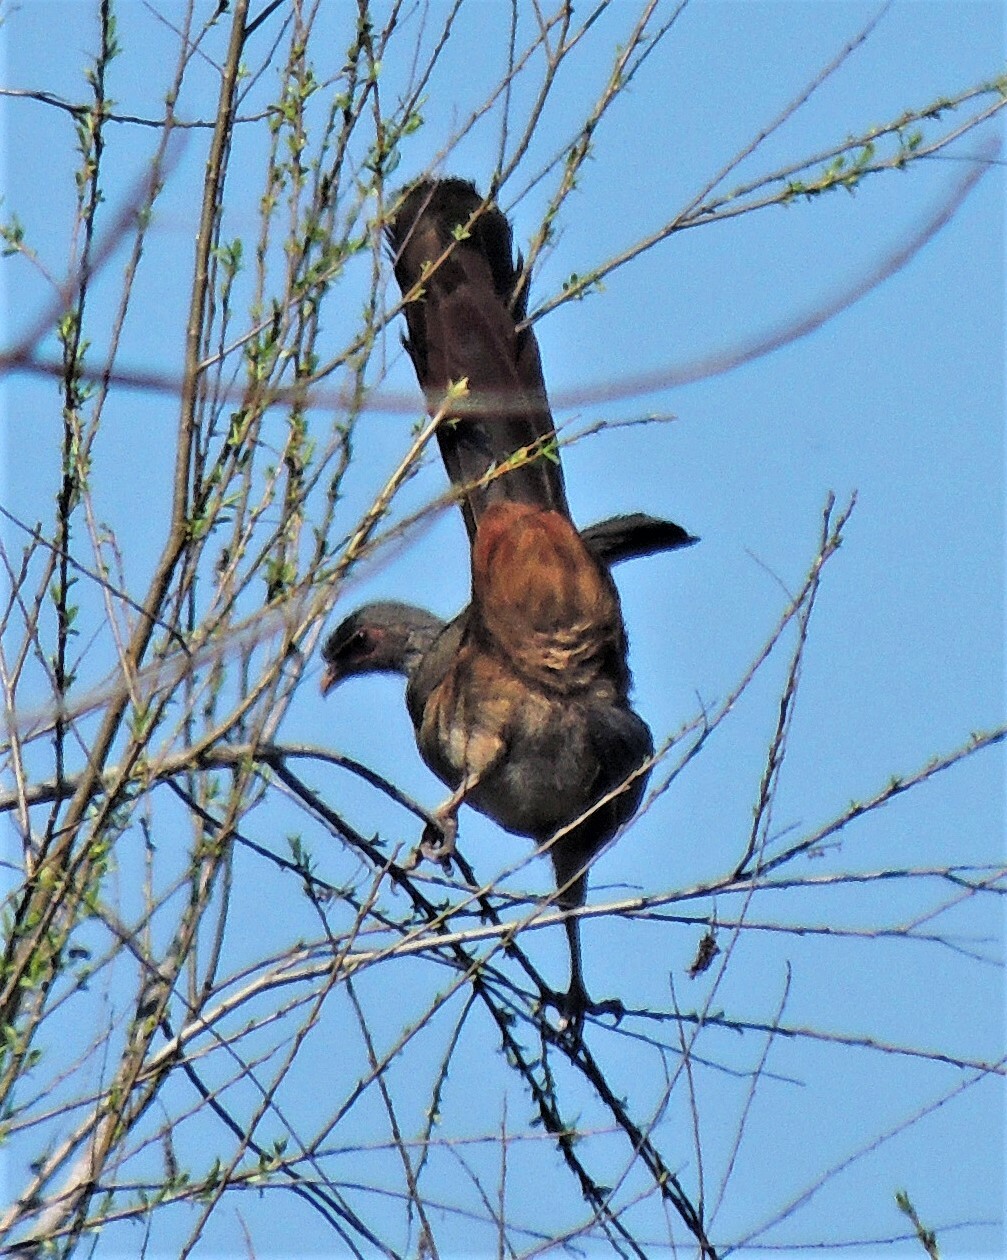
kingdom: Animalia
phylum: Chordata
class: Aves
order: Galliformes
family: Cracidae
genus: Ortalis
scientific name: Ortalis canicollis
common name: Chaco chachalaca
